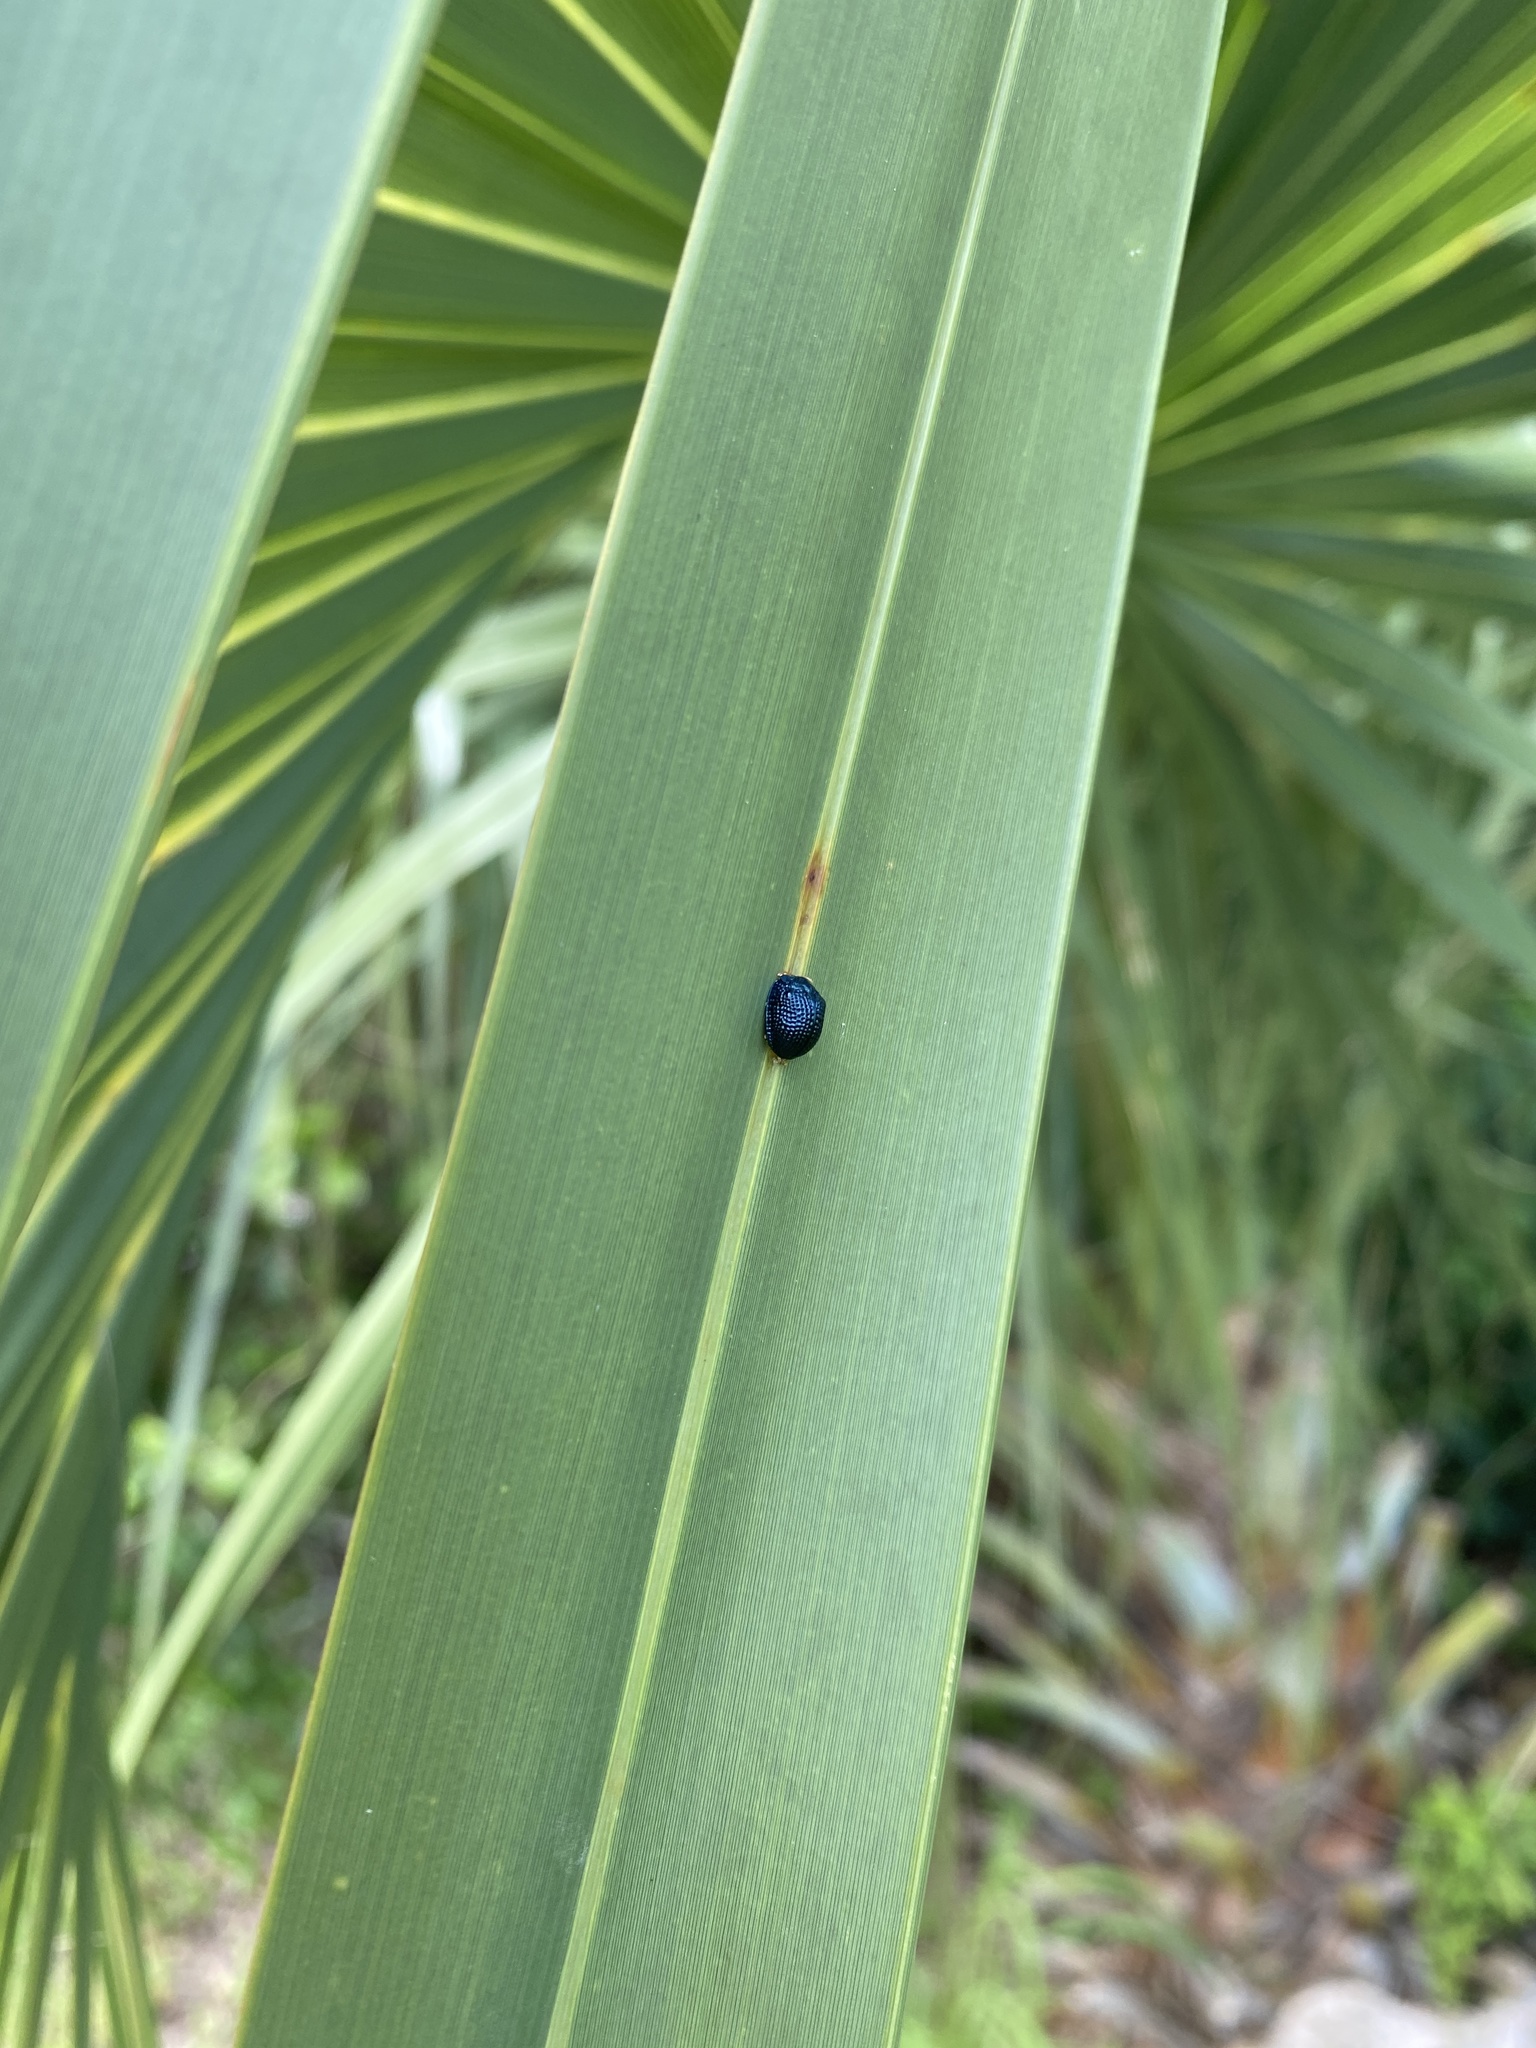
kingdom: Animalia
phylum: Arthropoda
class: Insecta
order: Coleoptera
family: Chrysomelidae
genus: Hemisphaerota
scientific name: Hemisphaerota cyanea
